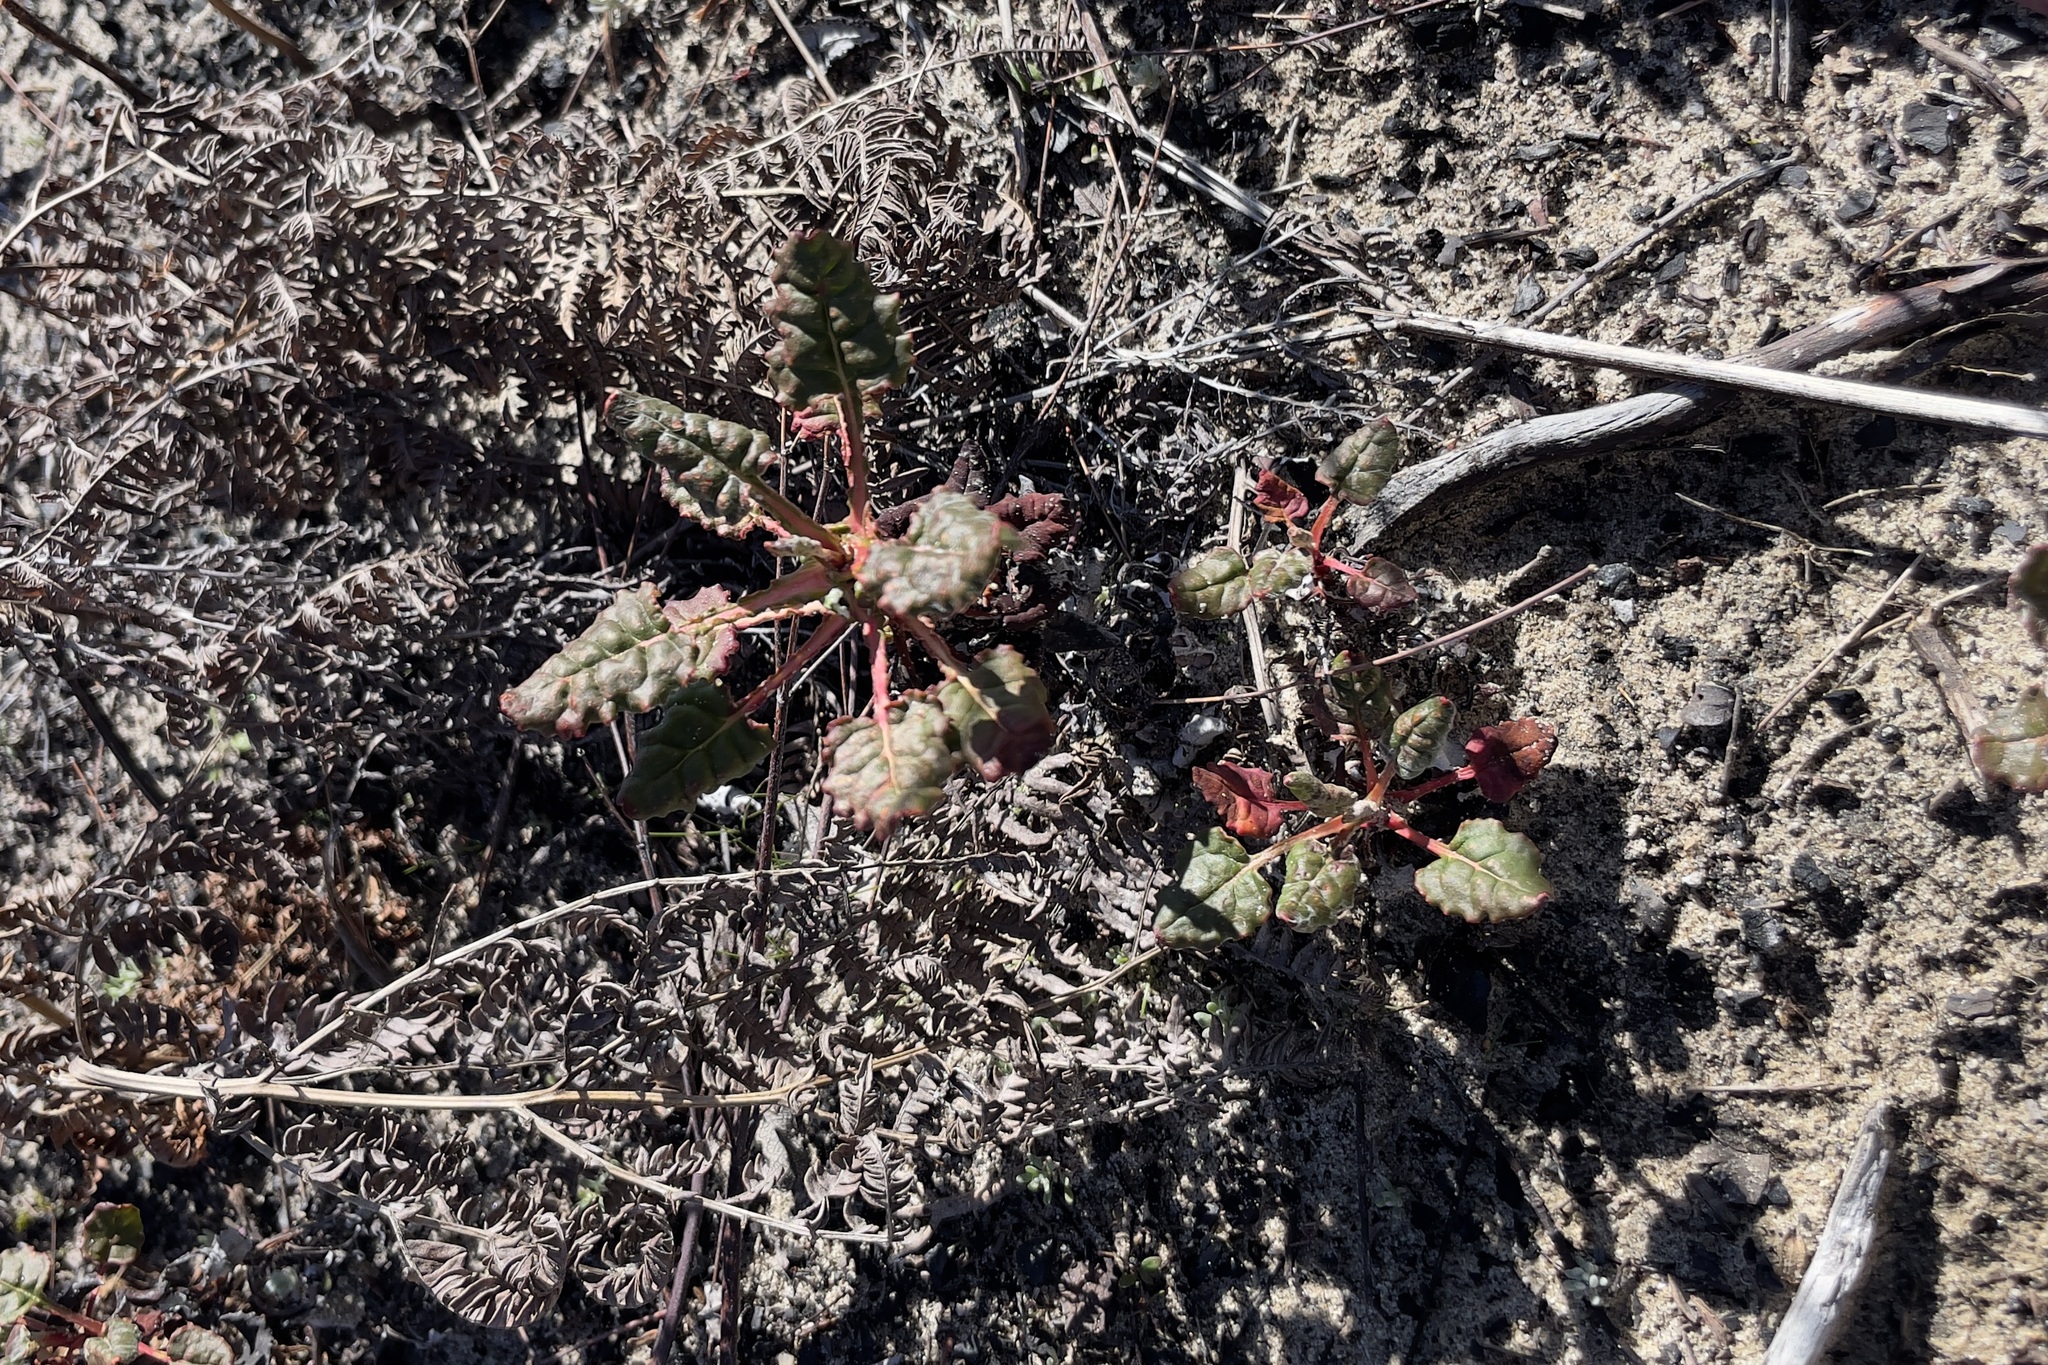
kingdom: Plantae
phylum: Tracheophyta
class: Magnoliopsida
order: Caryophyllales
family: Polygonaceae
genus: Eriogonum
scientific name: Eriogonum nudum
